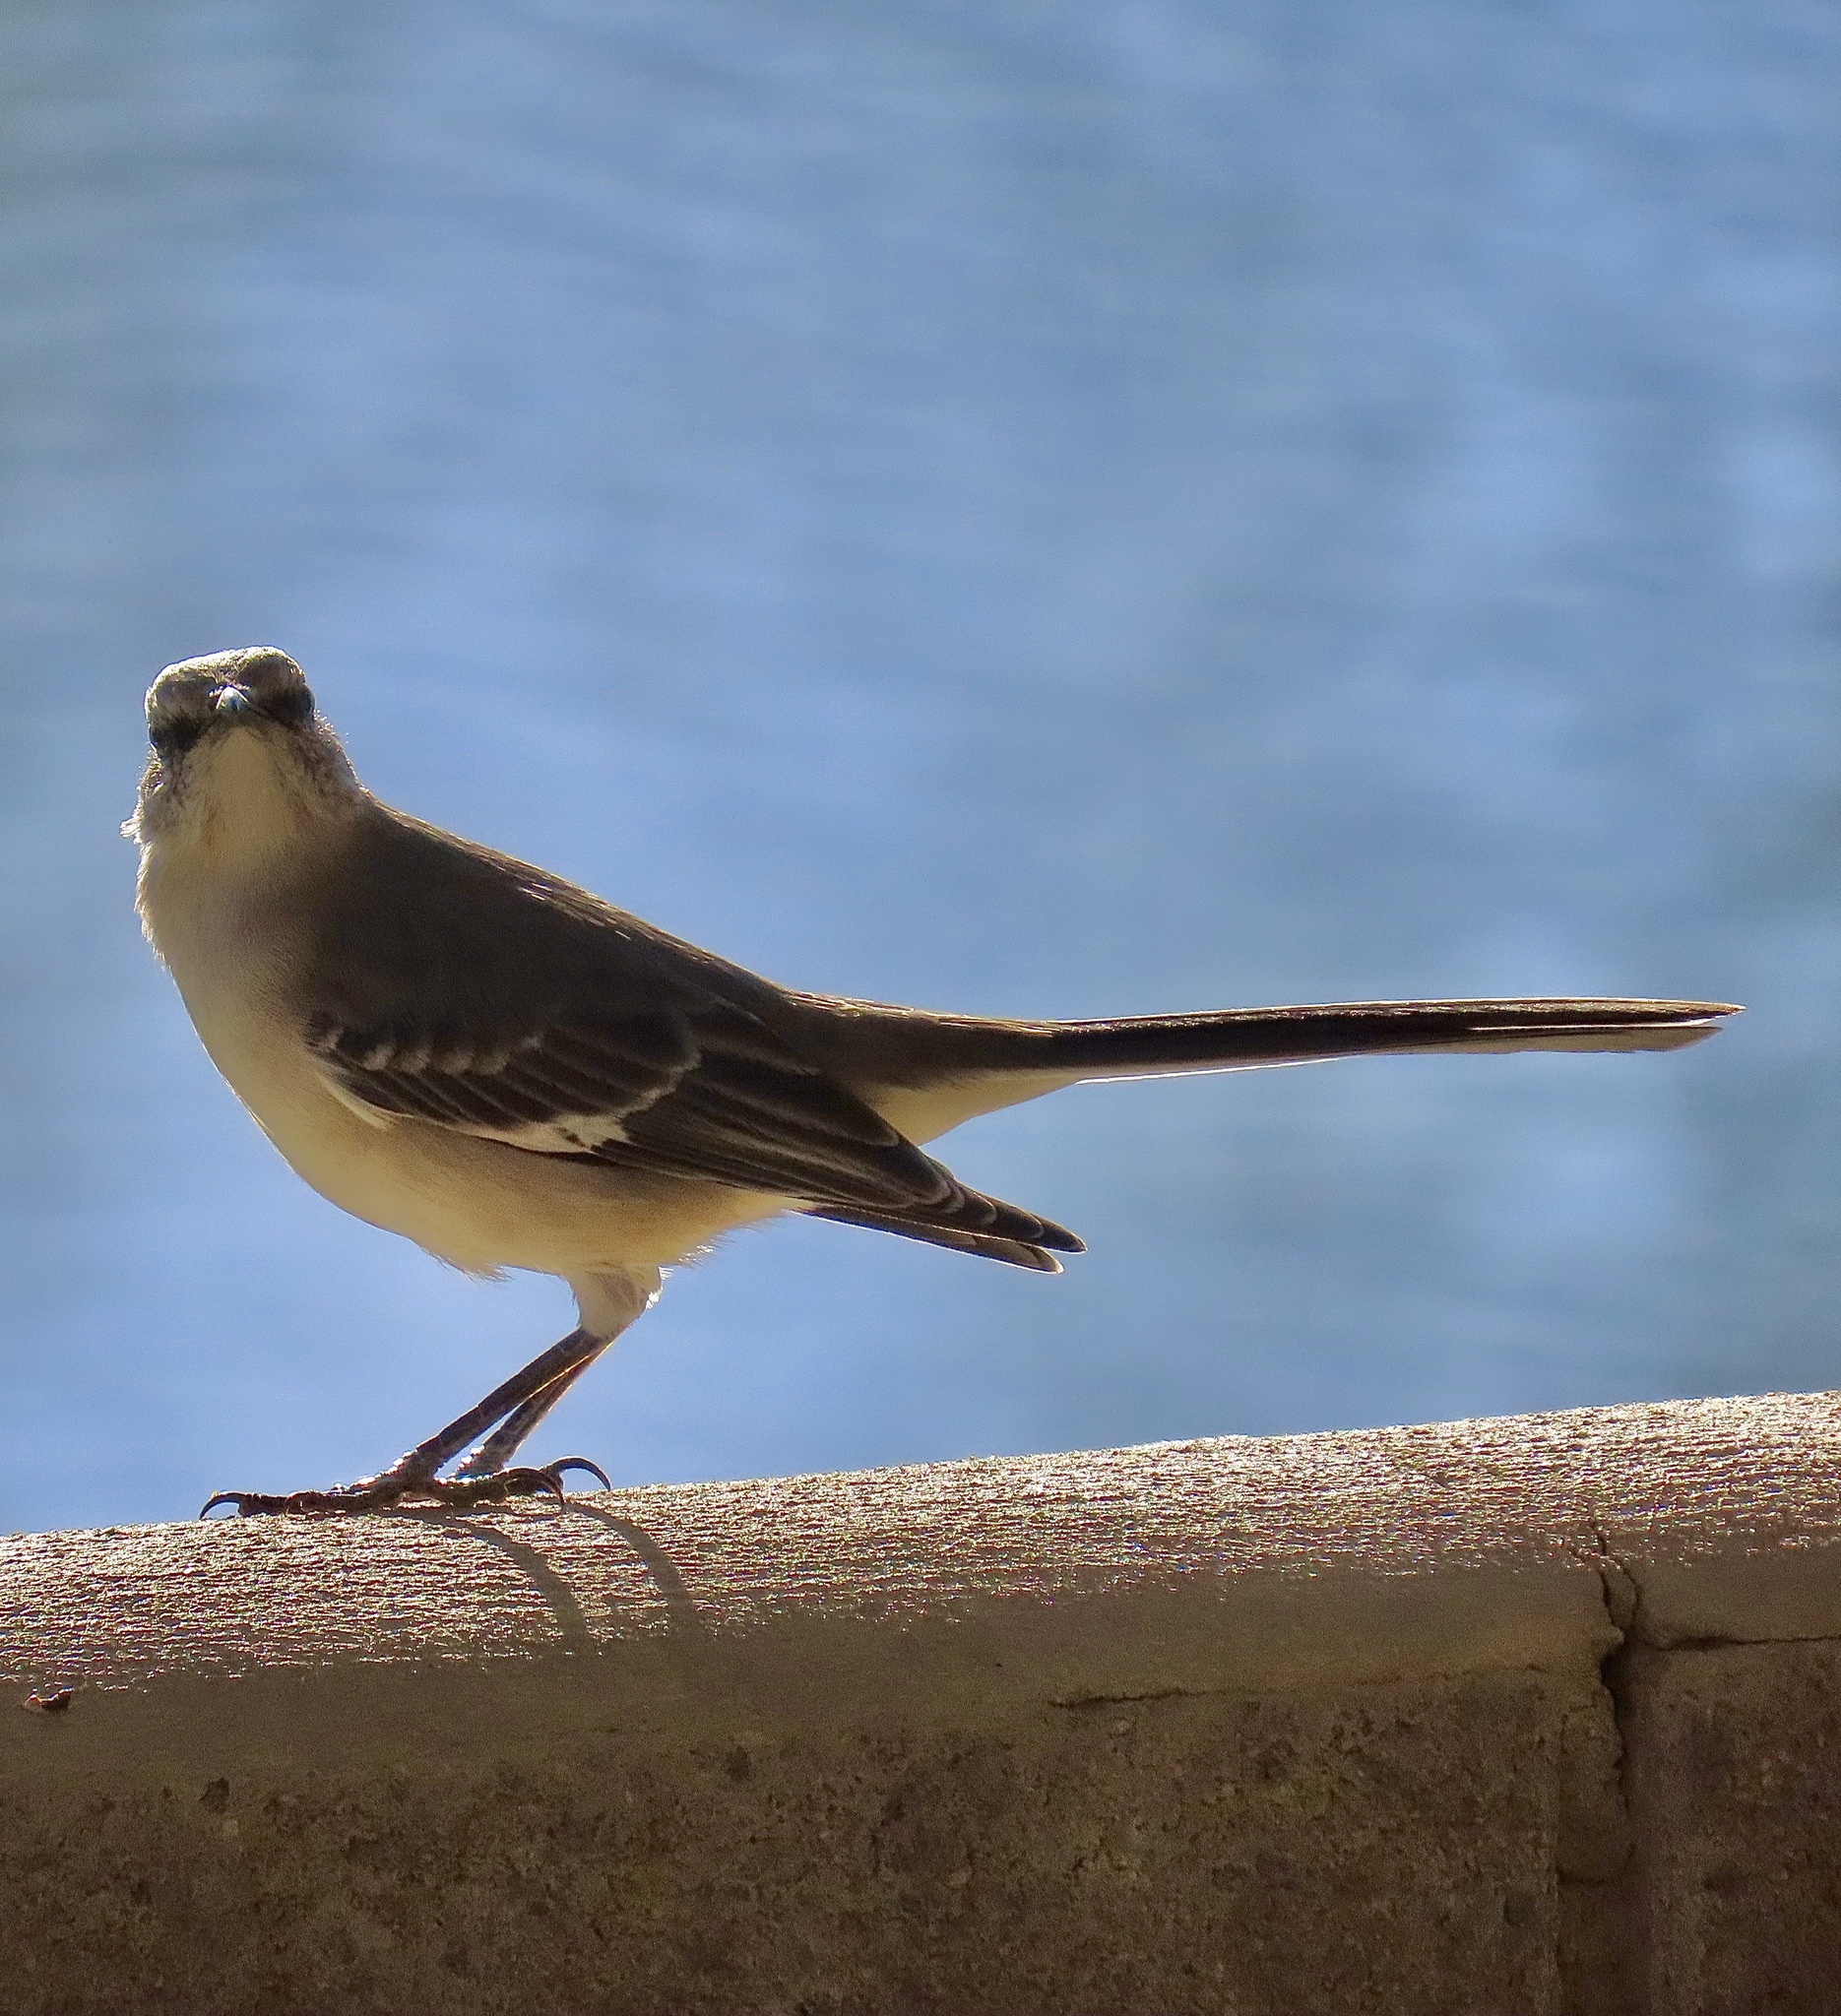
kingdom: Animalia
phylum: Chordata
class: Aves
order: Passeriformes
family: Mimidae
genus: Mimus
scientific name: Mimus polyglottos
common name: Northern mockingbird
